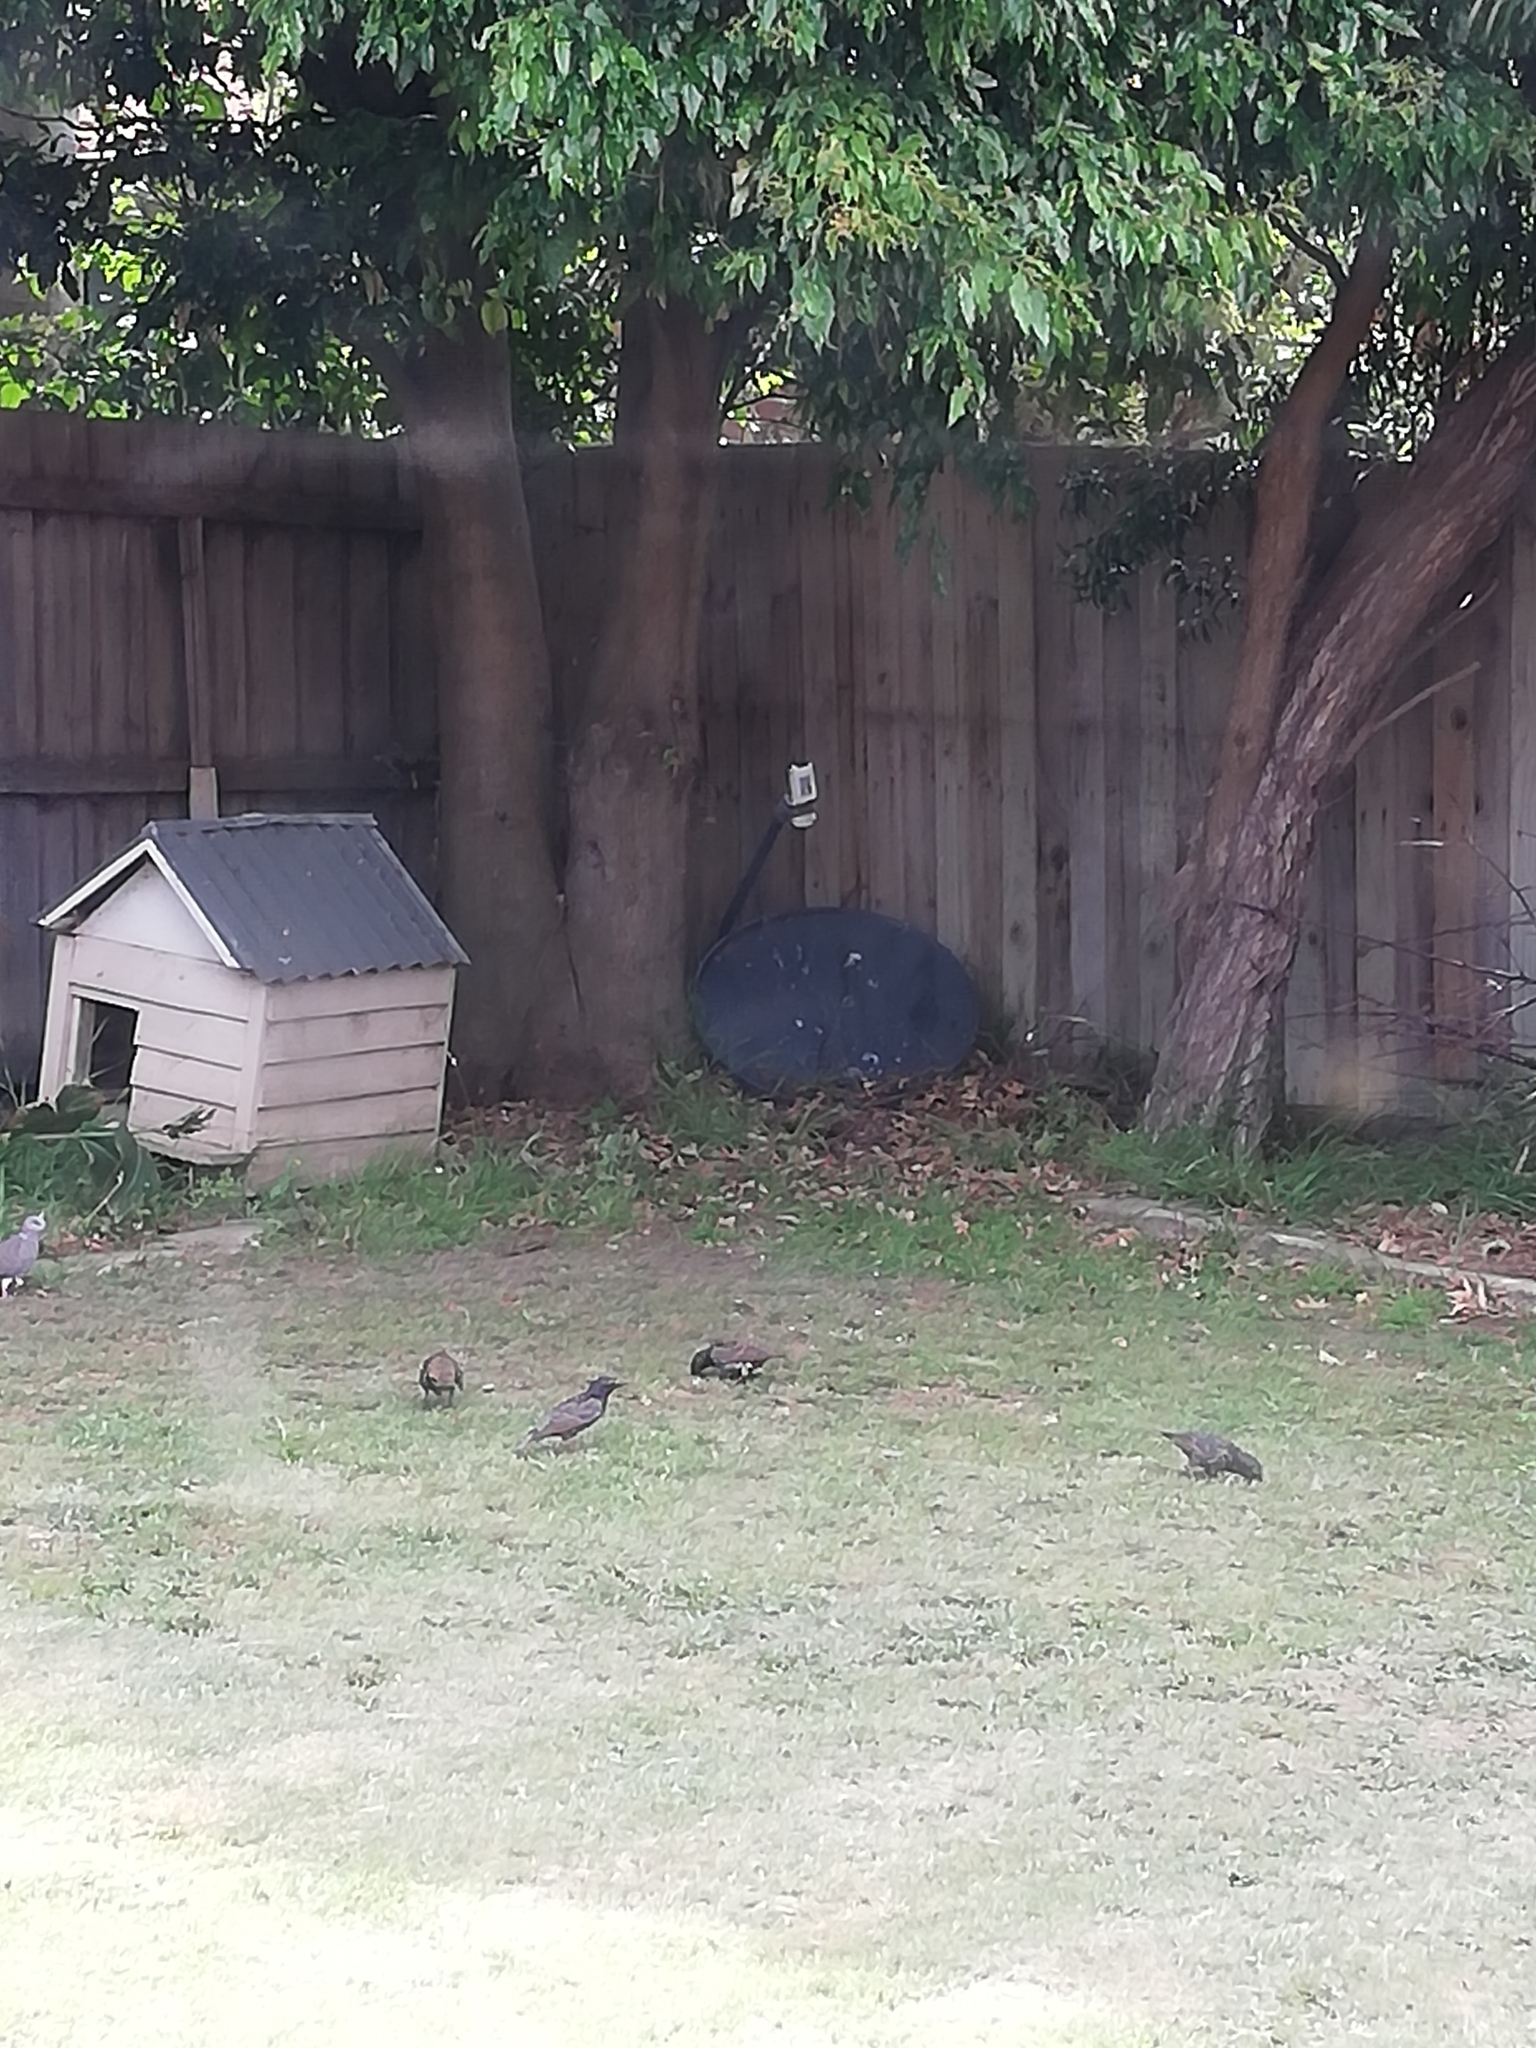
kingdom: Animalia
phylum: Chordata
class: Aves
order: Passeriformes
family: Sturnidae
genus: Sturnus
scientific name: Sturnus vulgaris
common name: Common starling
